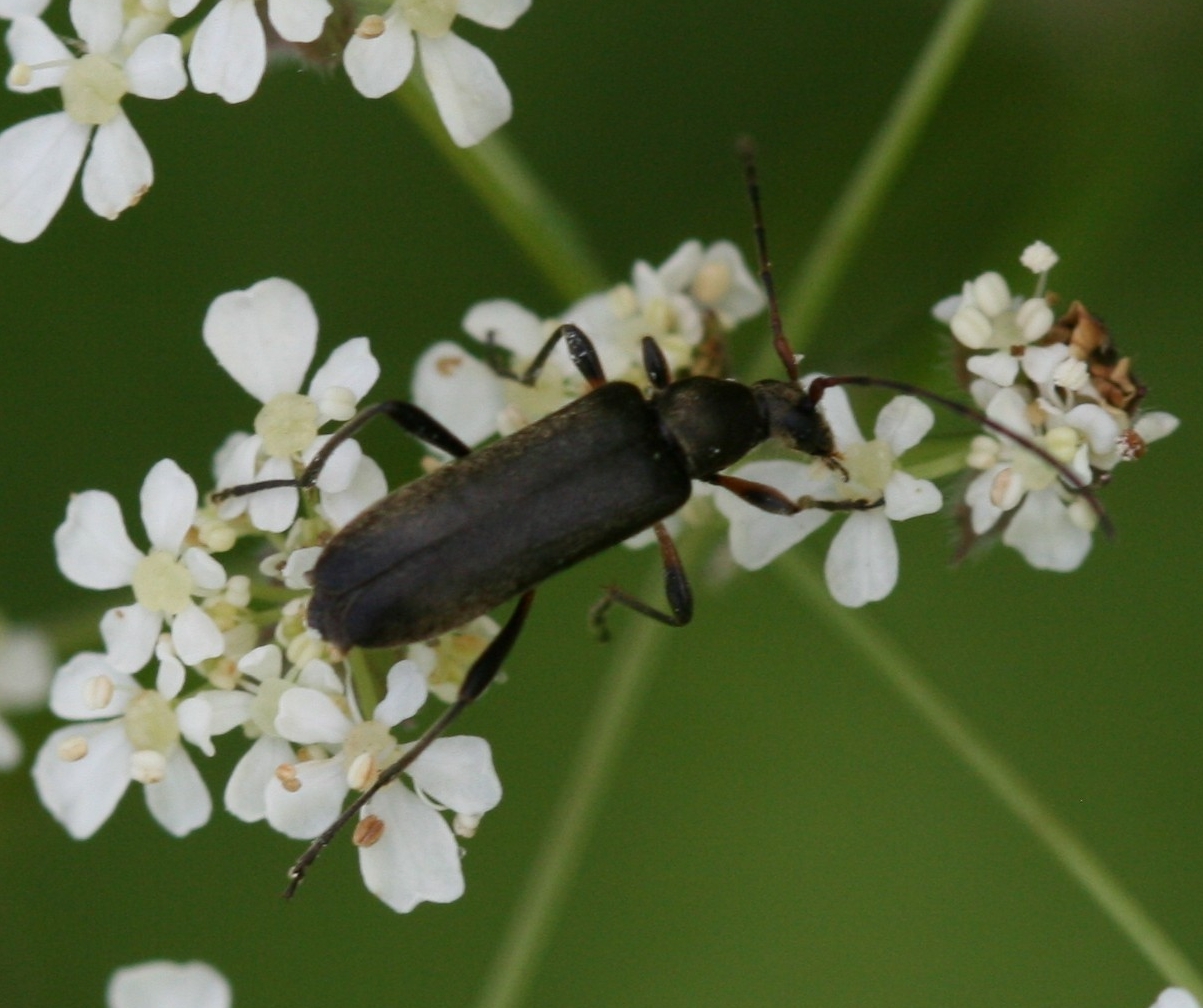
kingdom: Animalia
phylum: Arthropoda
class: Insecta
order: Coleoptera
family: Cerambycidae
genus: Grammoptera
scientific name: Grammoptera ruficornis
